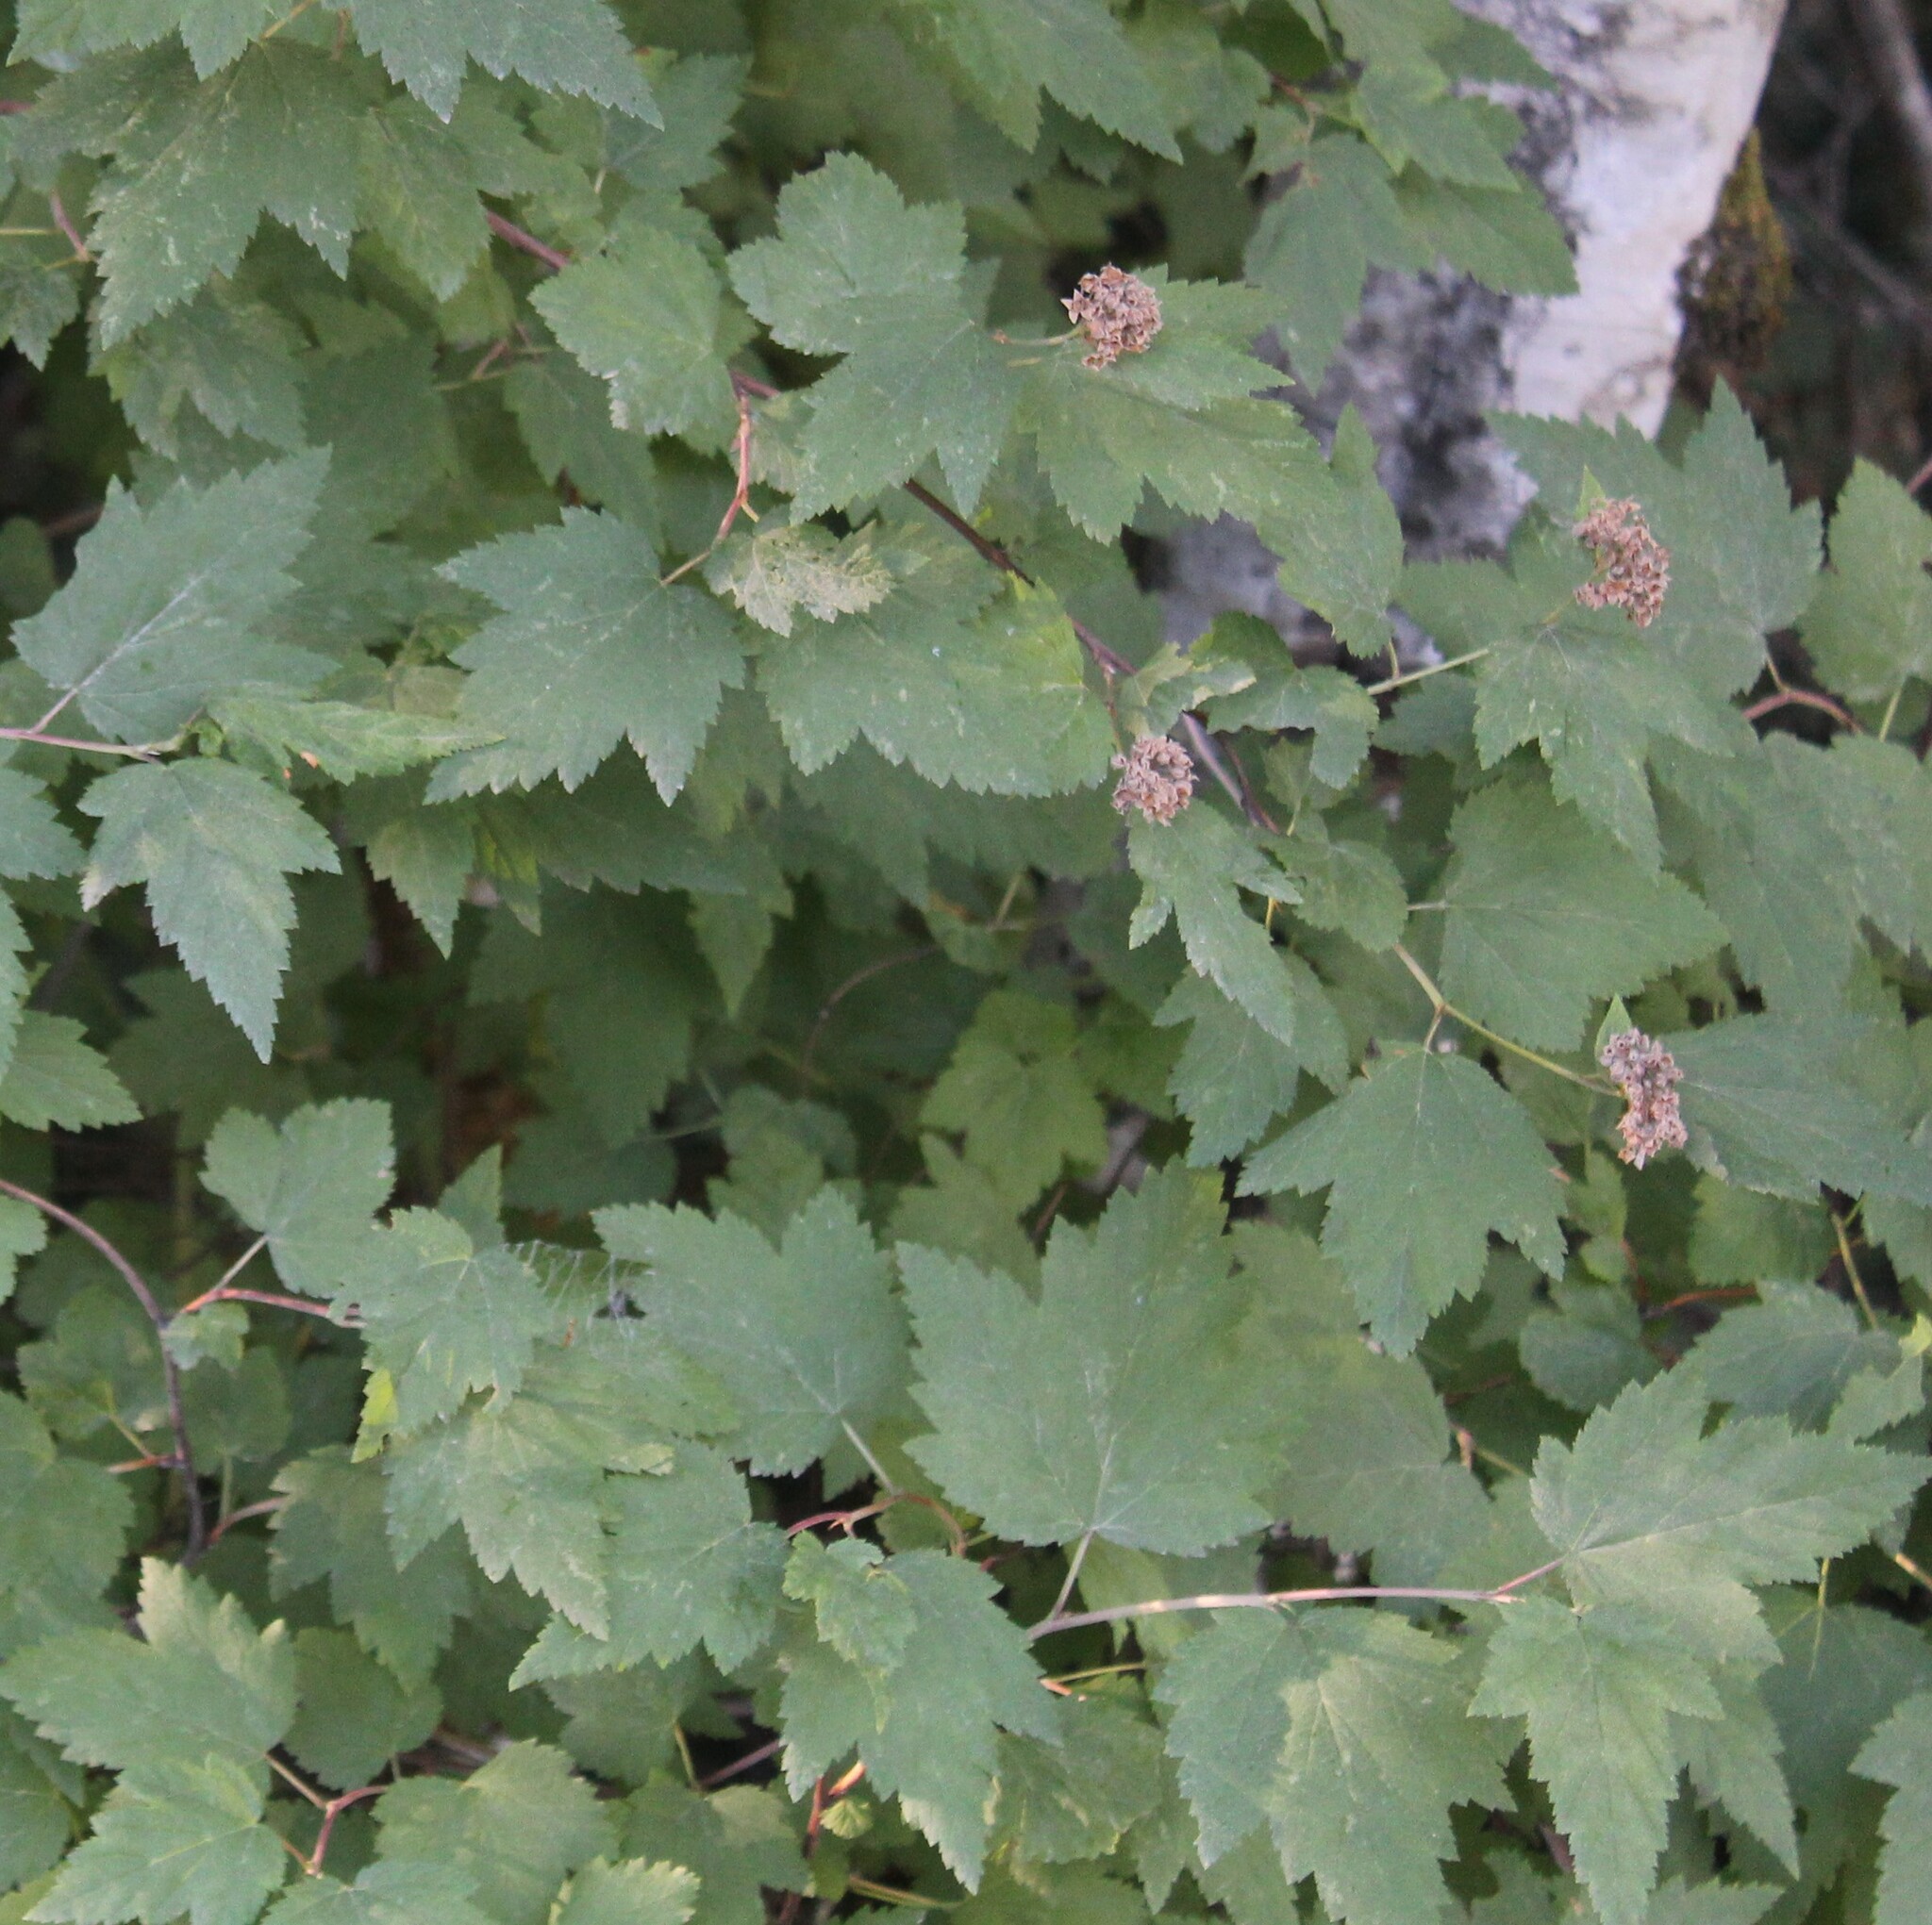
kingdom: Plantae
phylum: Tracheophyta
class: Magnoliopsida
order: Rosales
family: Rosaceae
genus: Physocarpus
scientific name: Physocarpus capitatus
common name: Pacific ninebark
